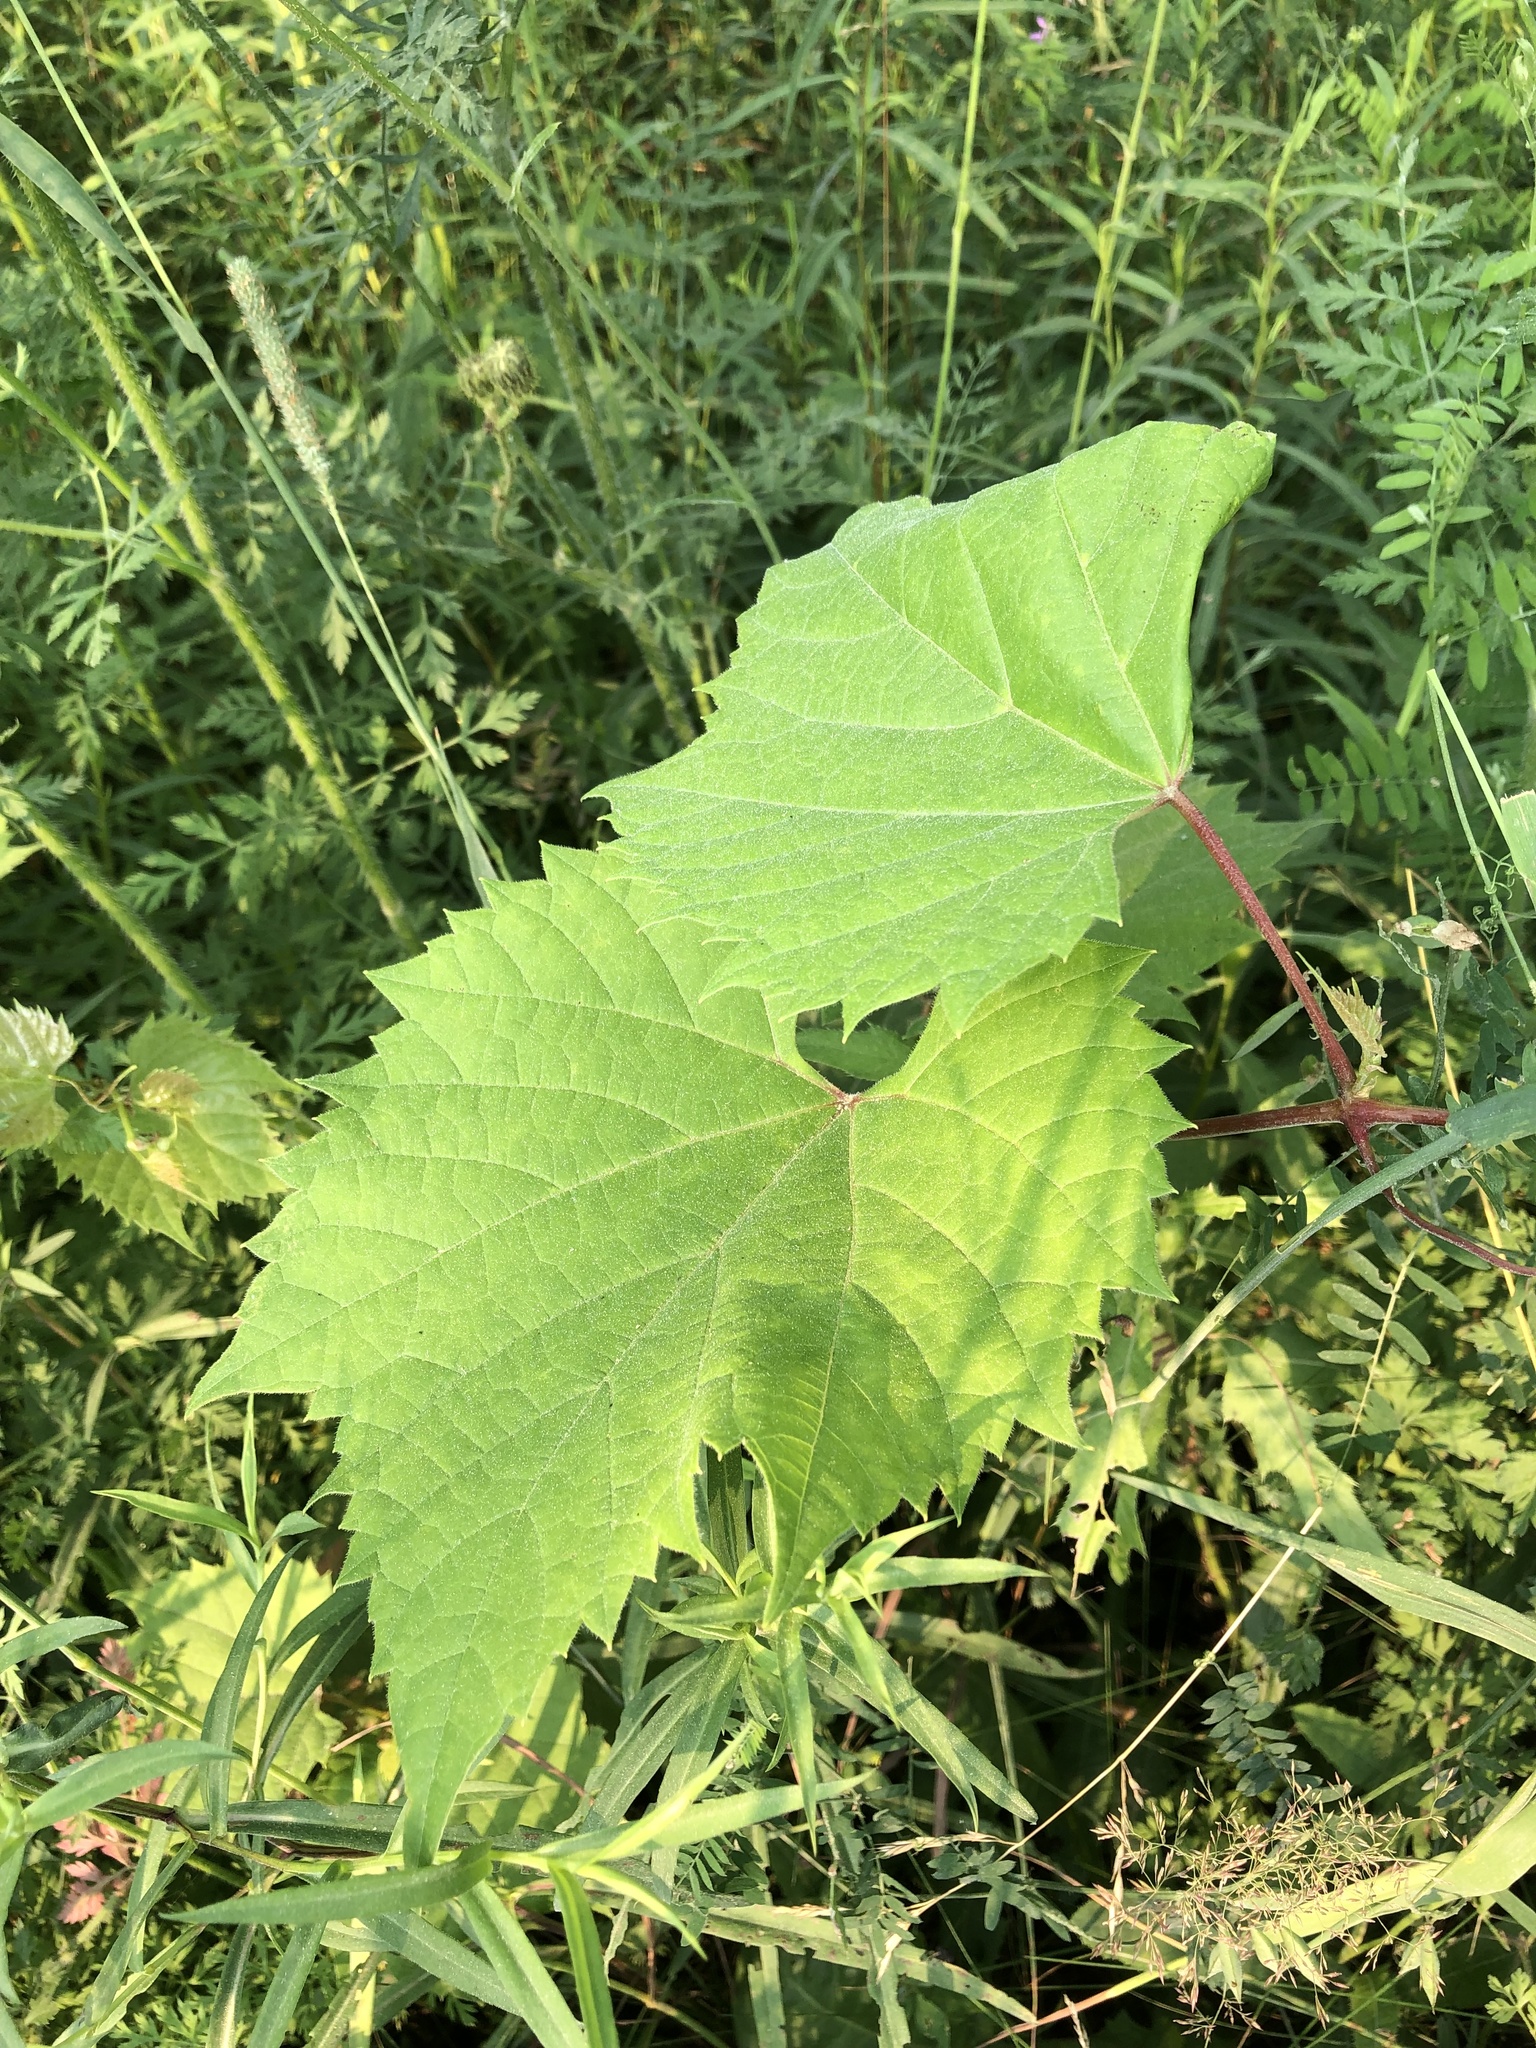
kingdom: Plantae
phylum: Tracheophyta
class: Magnoliopsida
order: Vitales
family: Vitaceae
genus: Vitis
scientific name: Vitis riparia
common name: Frost grape
